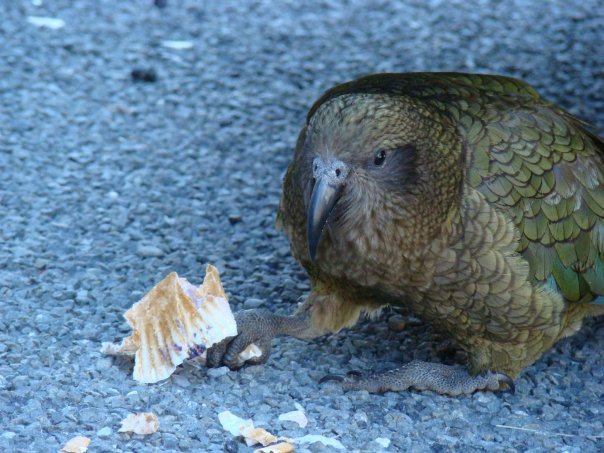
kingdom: Animalia
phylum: Chordata
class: Aves
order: Psittaciformes
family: Psittacidae
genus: Nestor
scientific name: Nestor notabilis
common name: Kea
